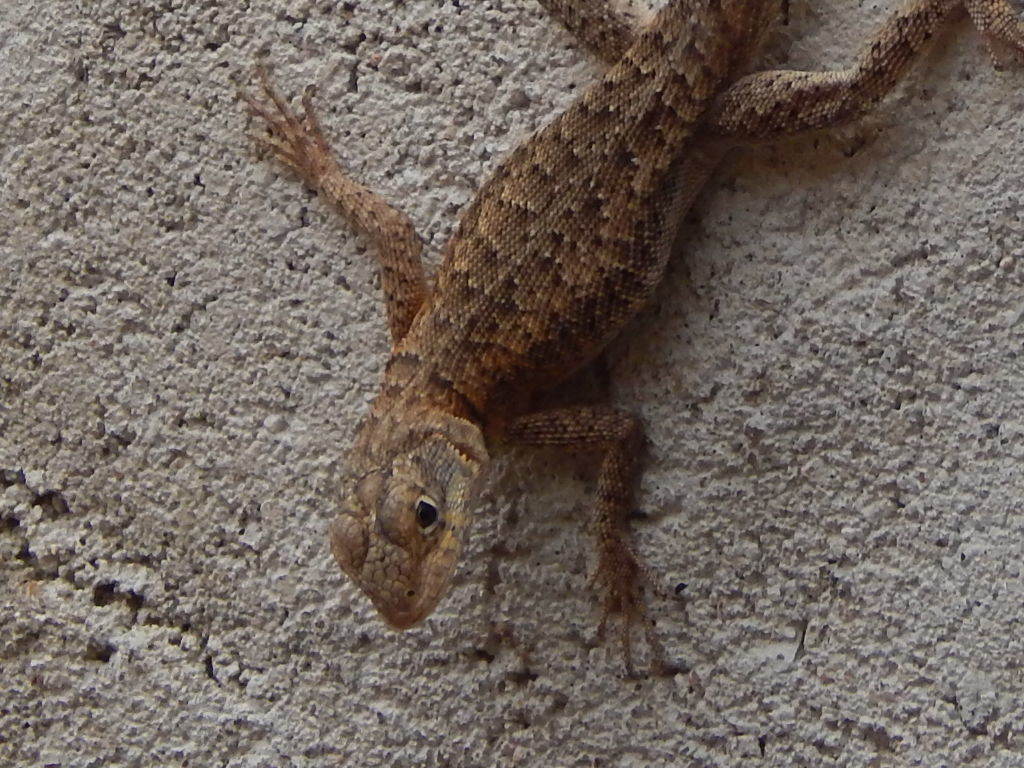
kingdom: Animalia
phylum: Chordata
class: Squamata
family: Tropiduridae
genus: Tropidurus
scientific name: Tropidurus hispidus
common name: Peters' lava lizard
